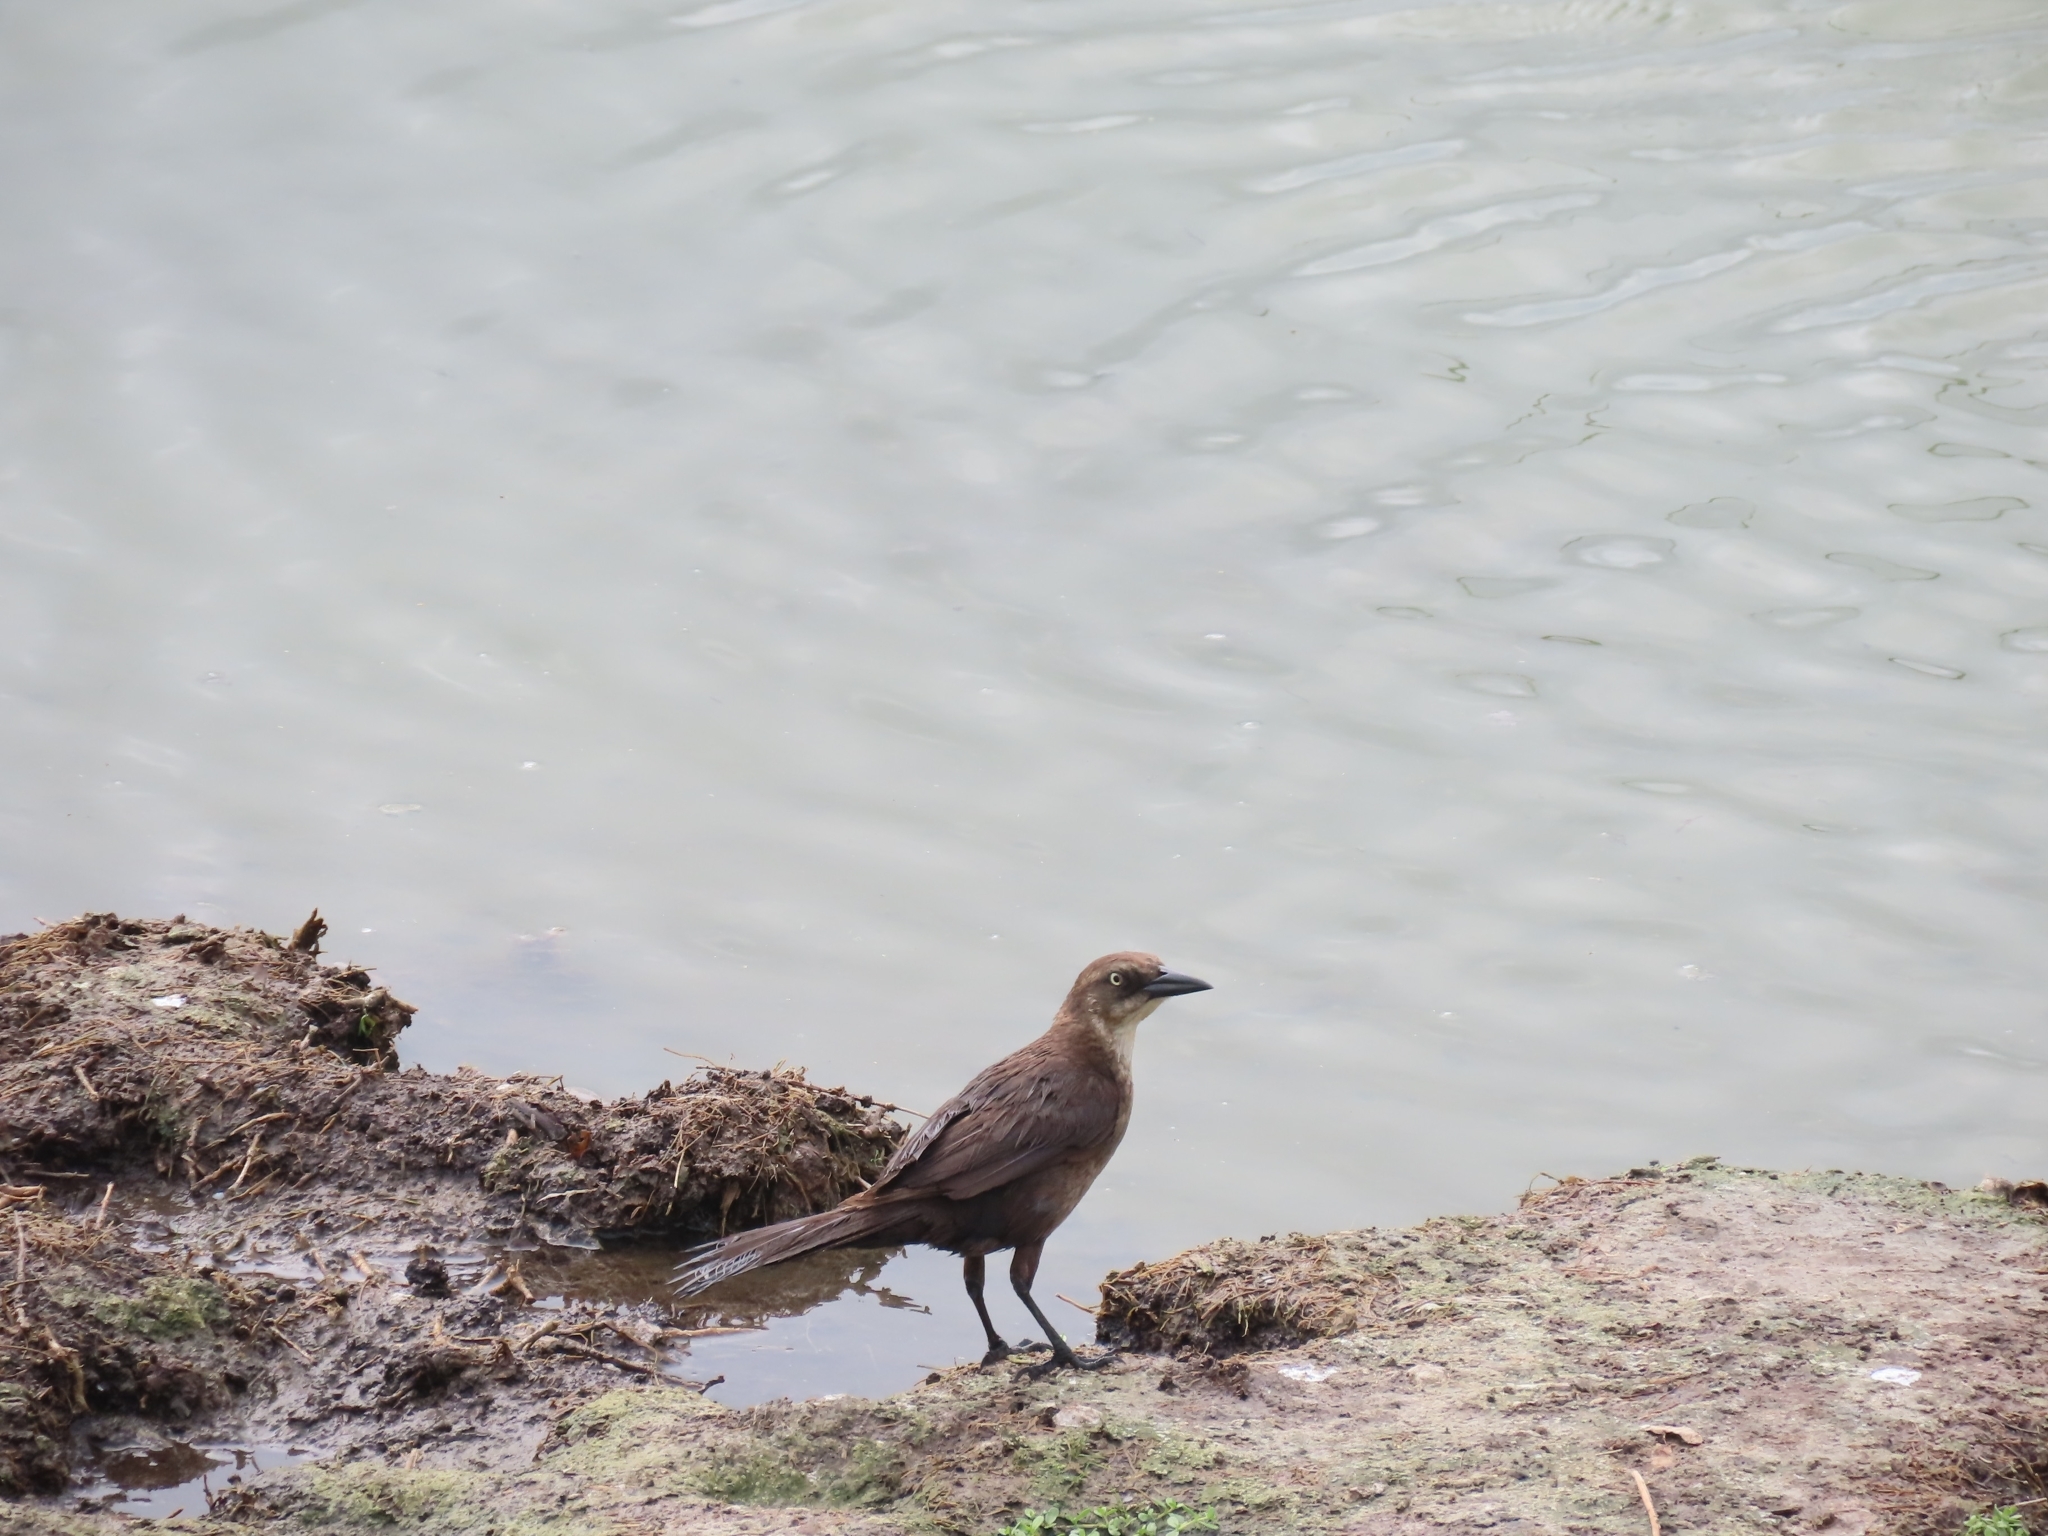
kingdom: Animalia
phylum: Chordata
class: Aves
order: Passeriformes
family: Icteridae
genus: Quiscalus
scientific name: Quiscalus mexicanus
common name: Great-tailed grackle
